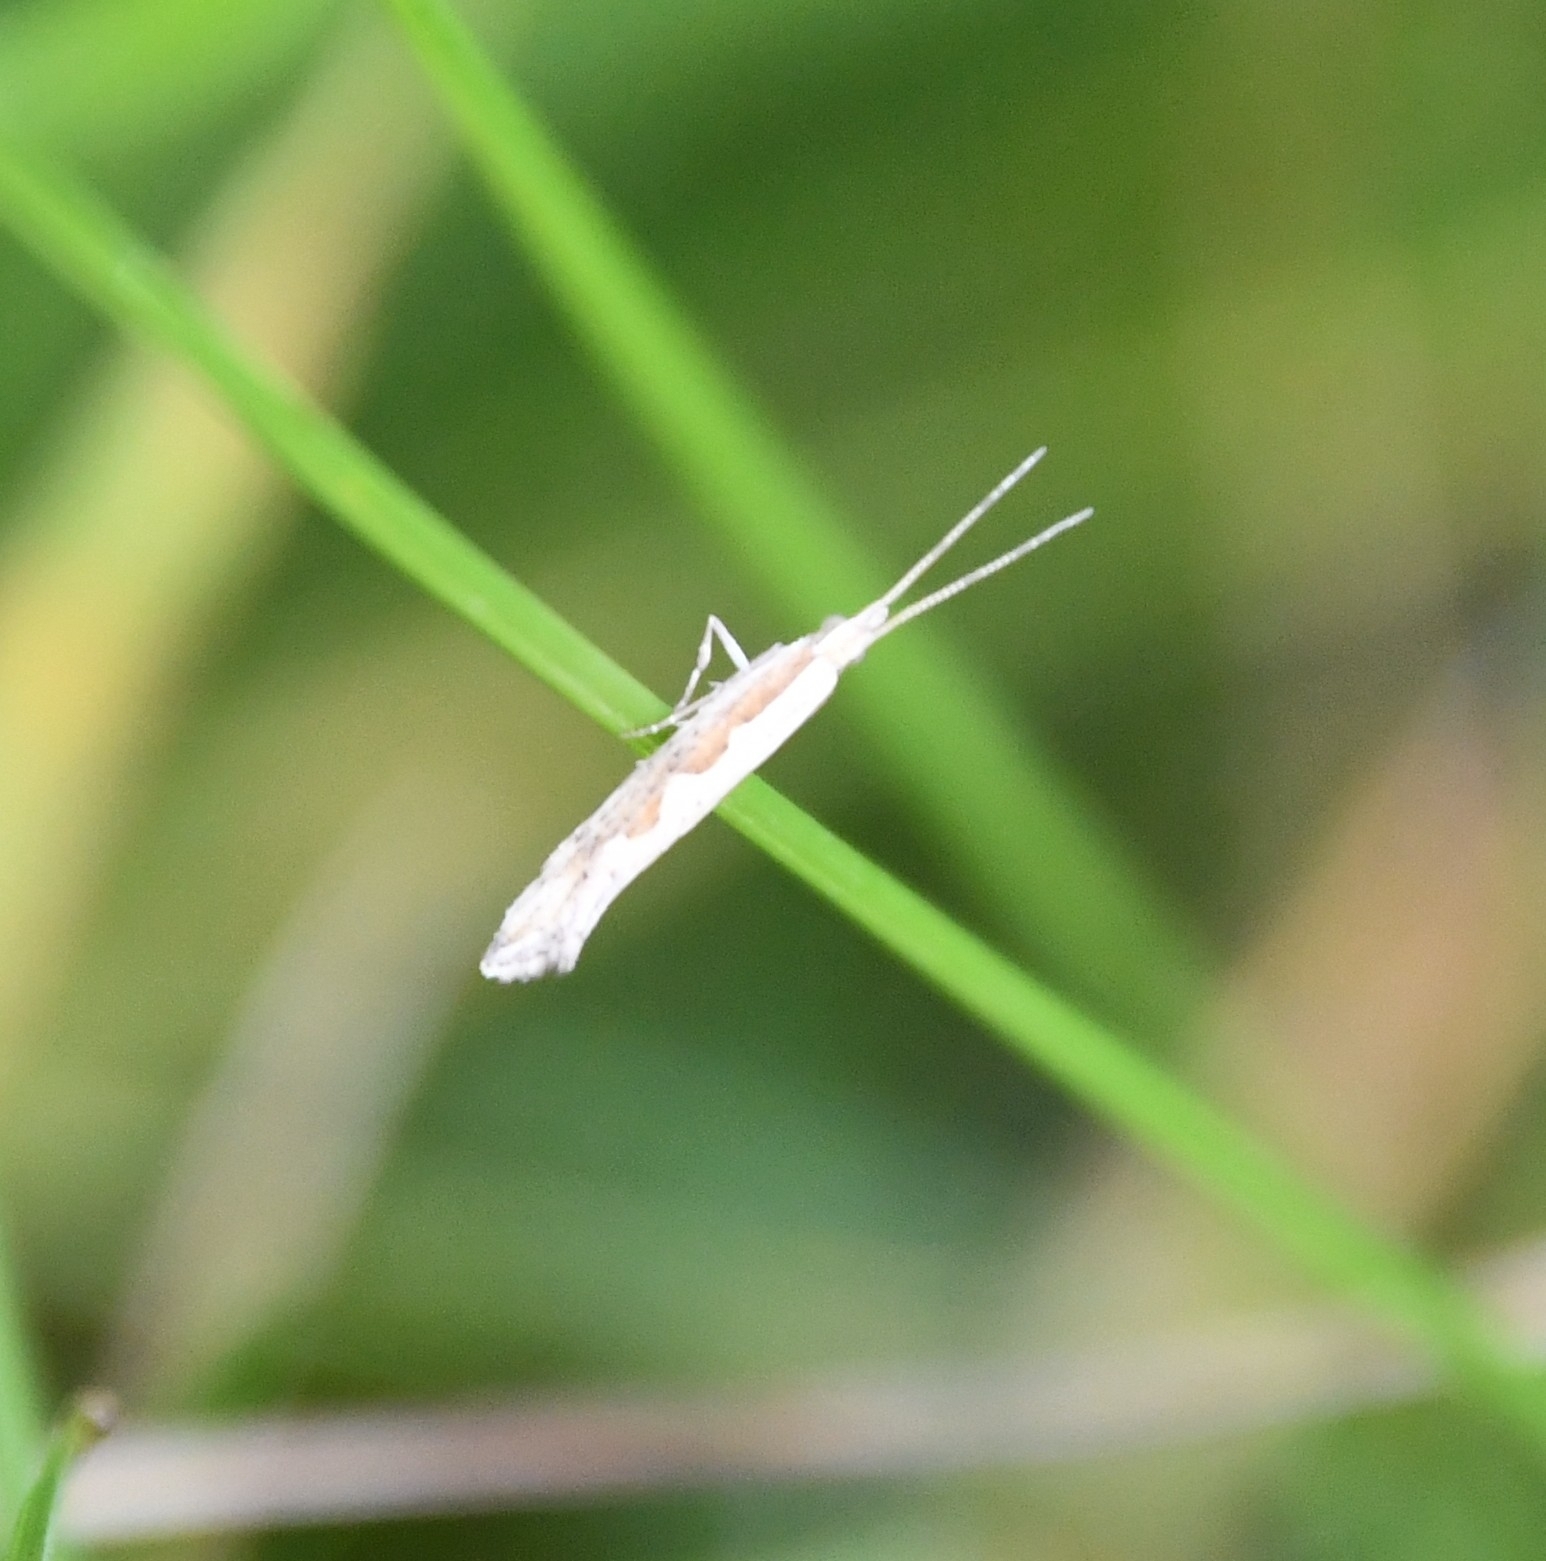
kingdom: Animalia
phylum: Arthropoda
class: Insecta
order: Lepidoptera
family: Plutellidae
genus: Plutella
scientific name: Plutella xylostella
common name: Diamond-back moth
